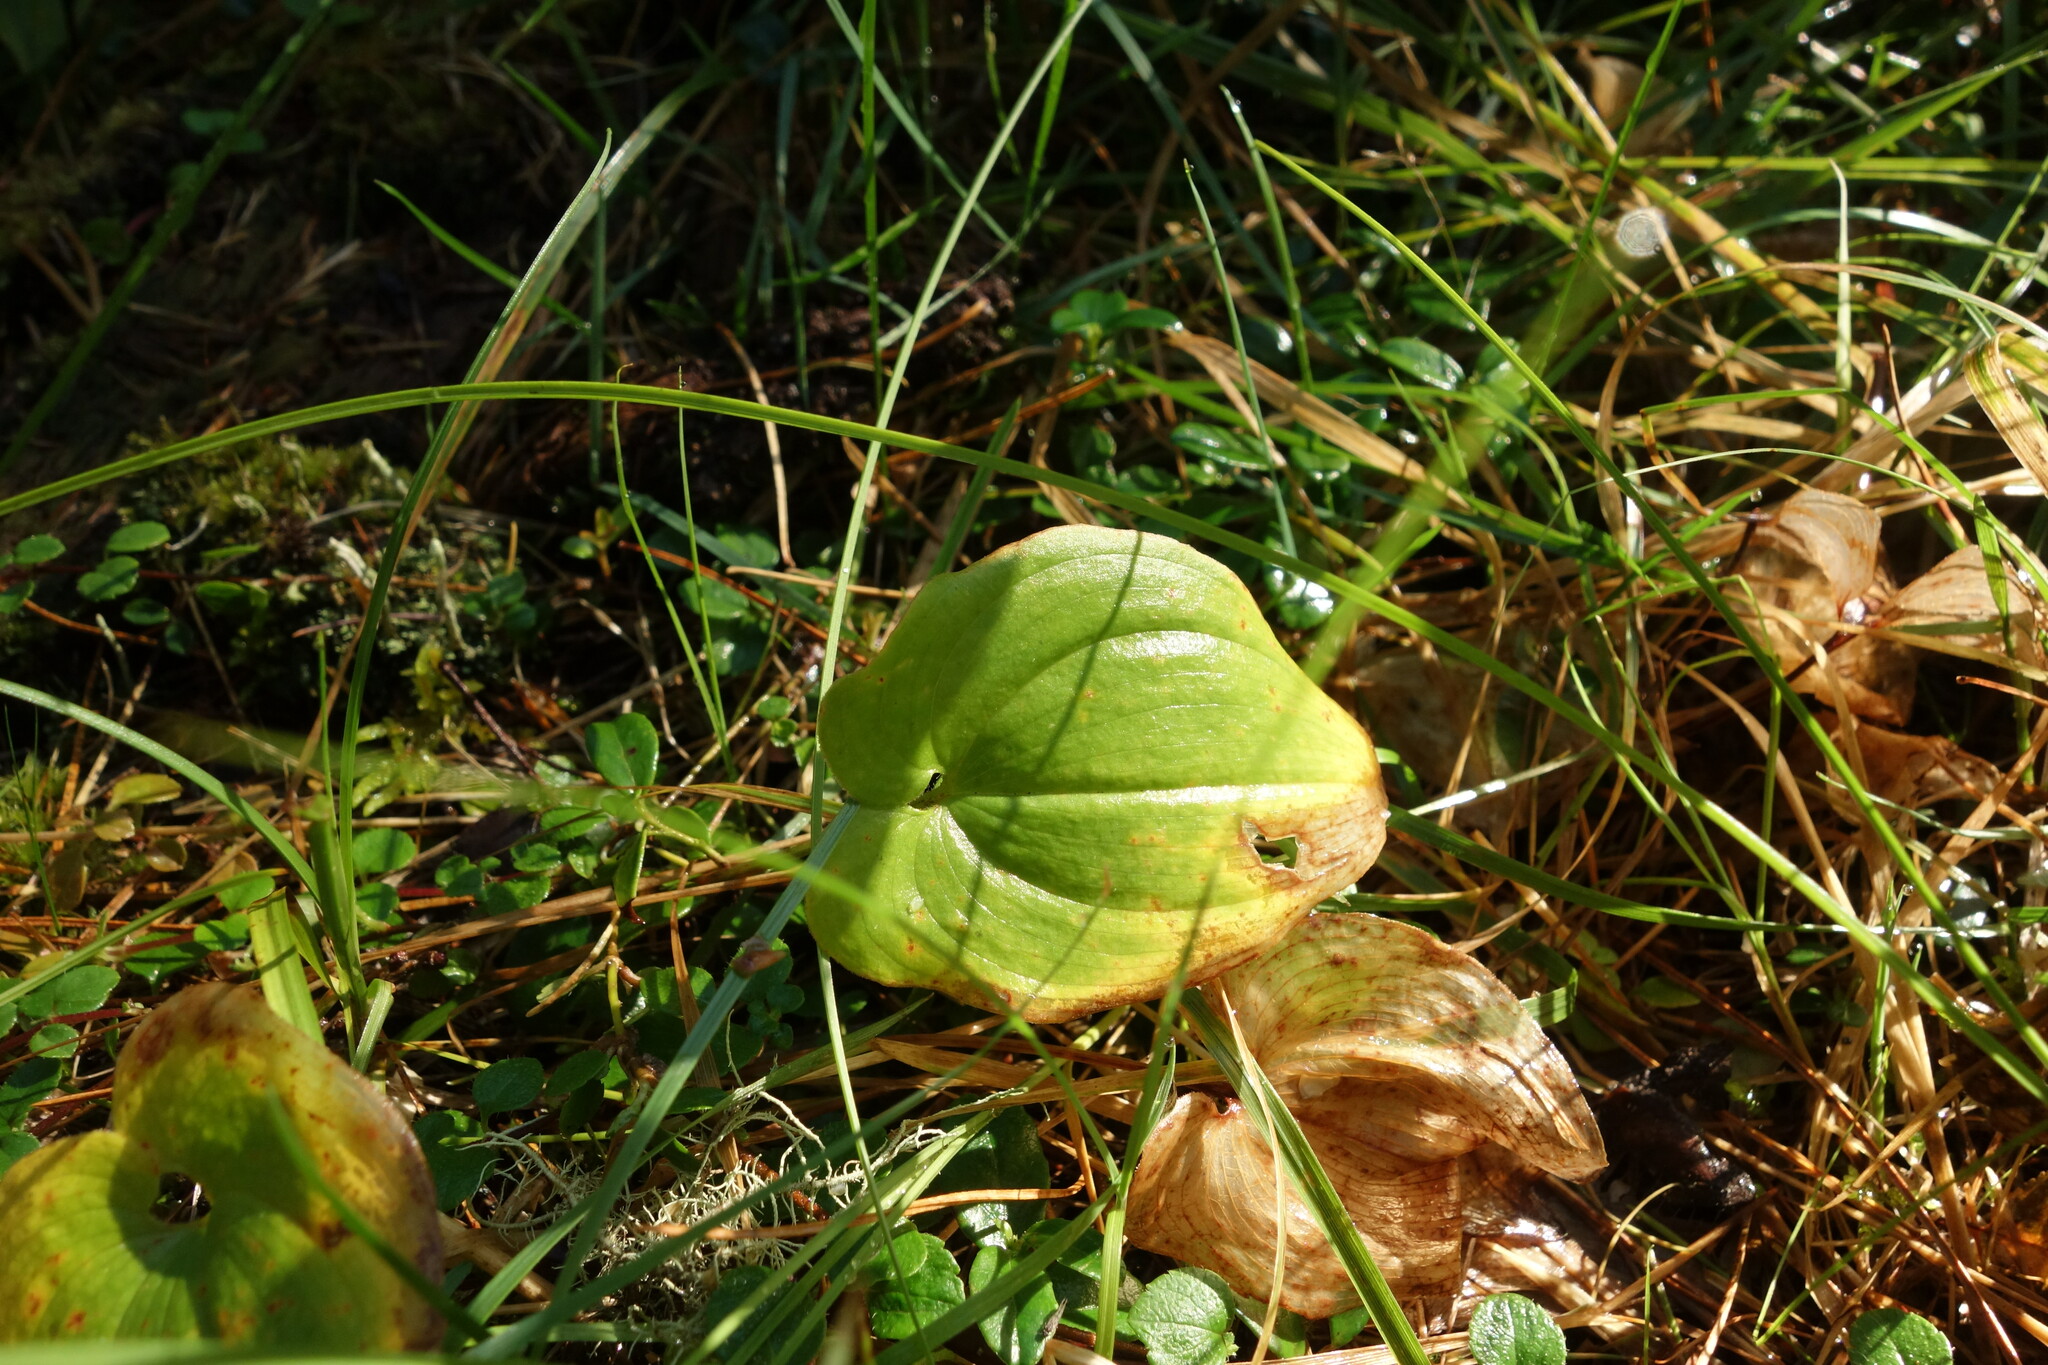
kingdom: Plantae
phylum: Tracheophyta
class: Liliopsida
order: Asparagales
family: Asparagaceae
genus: Maianthemum
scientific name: Maianthemum bifolium
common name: May lily
